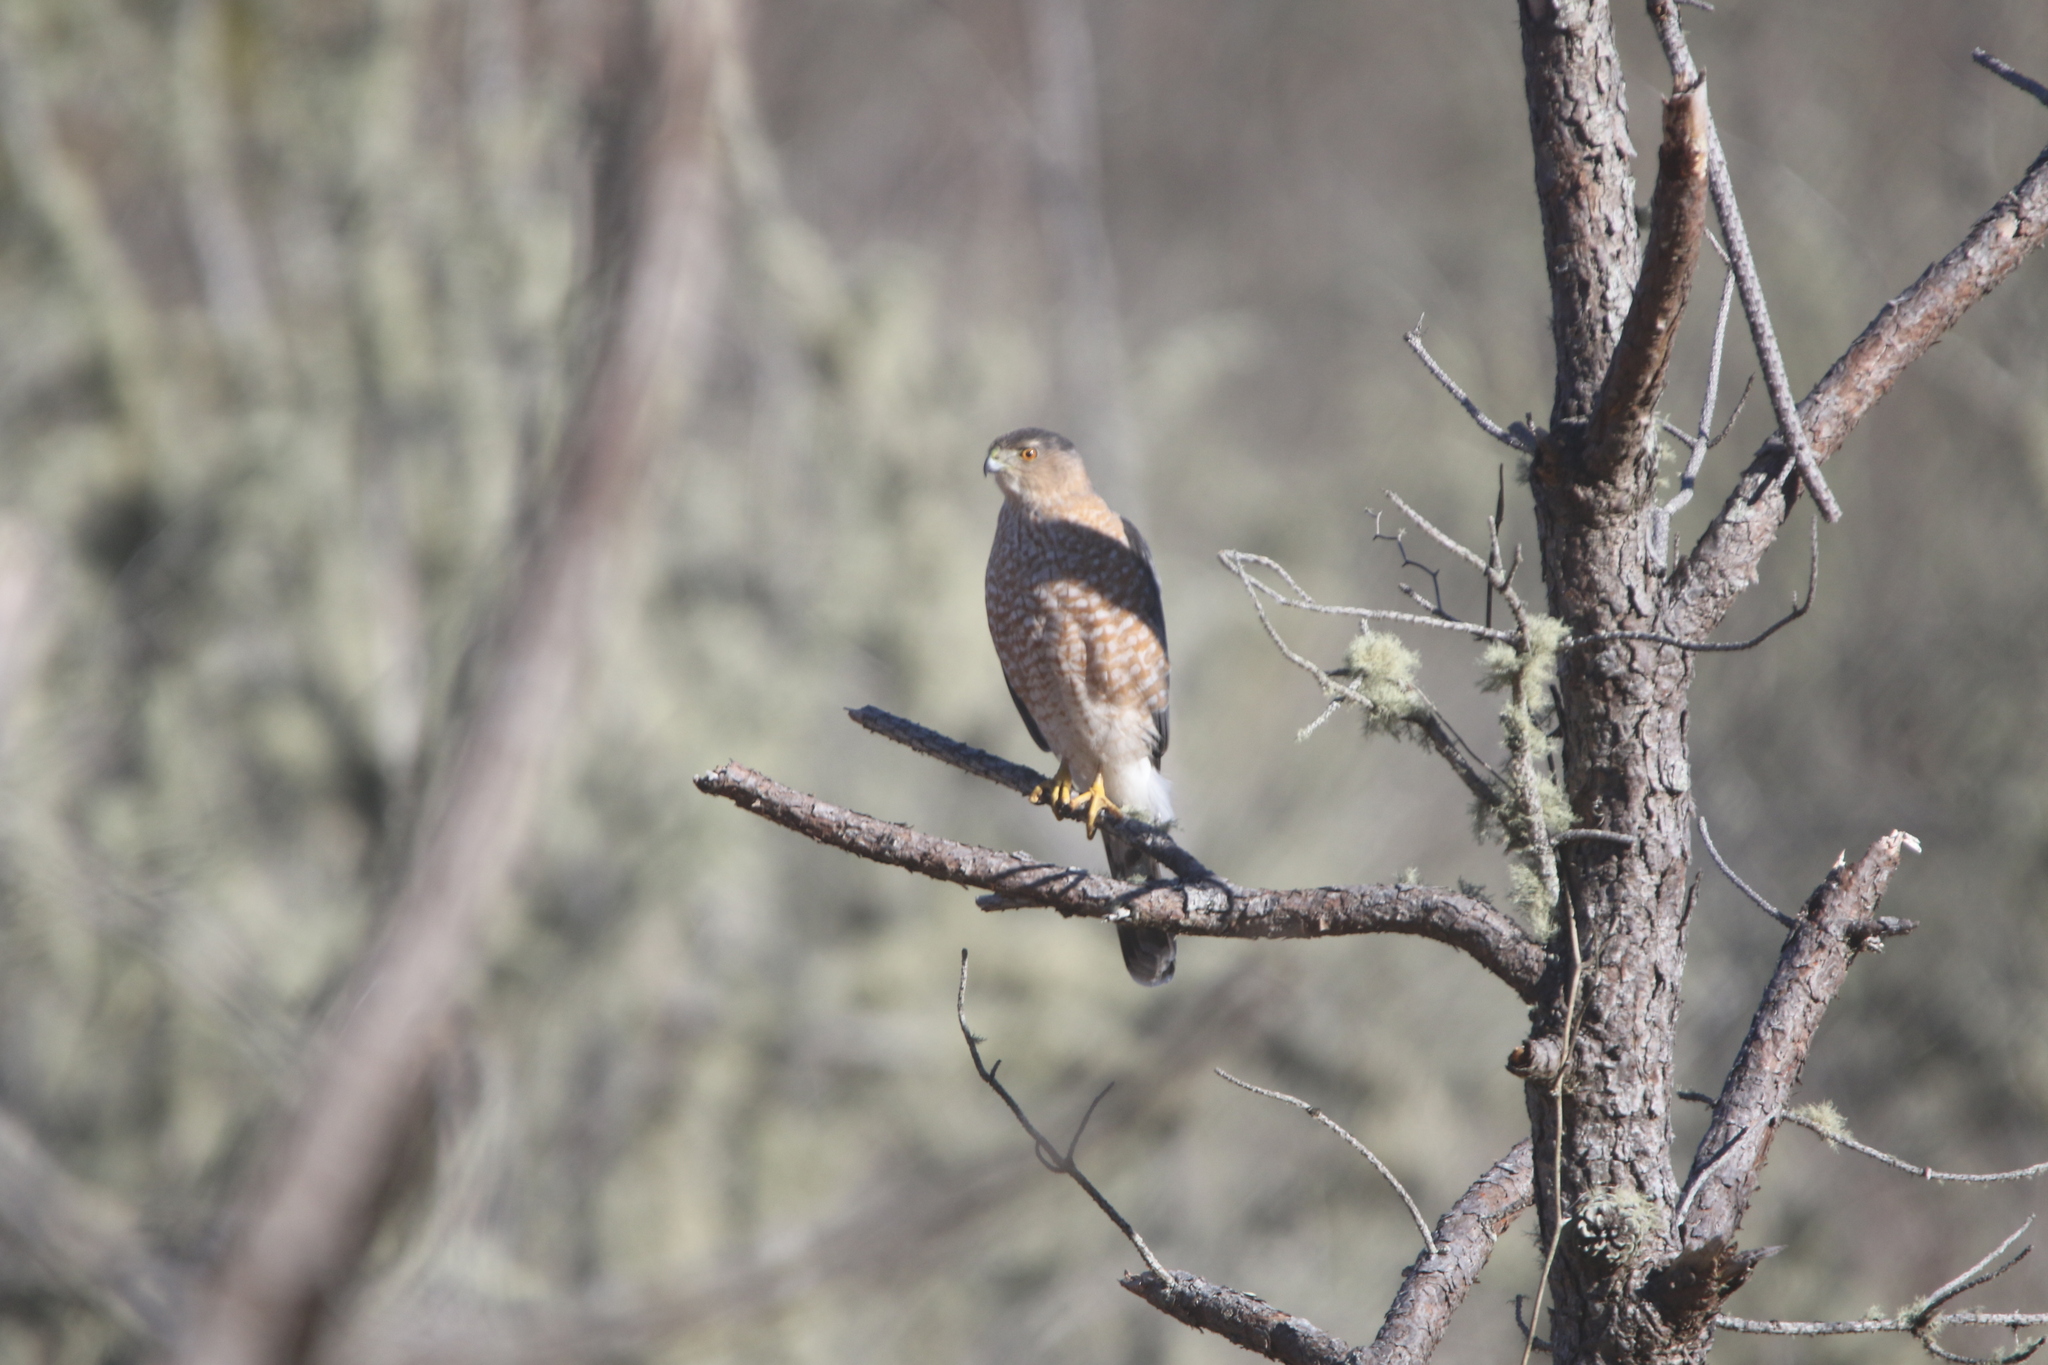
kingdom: Animalia
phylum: Chordata
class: Aves
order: Accipitriformes
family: Accipitridae
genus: Accipiter
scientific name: Accipiter cooperii
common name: Cooper's hawk
